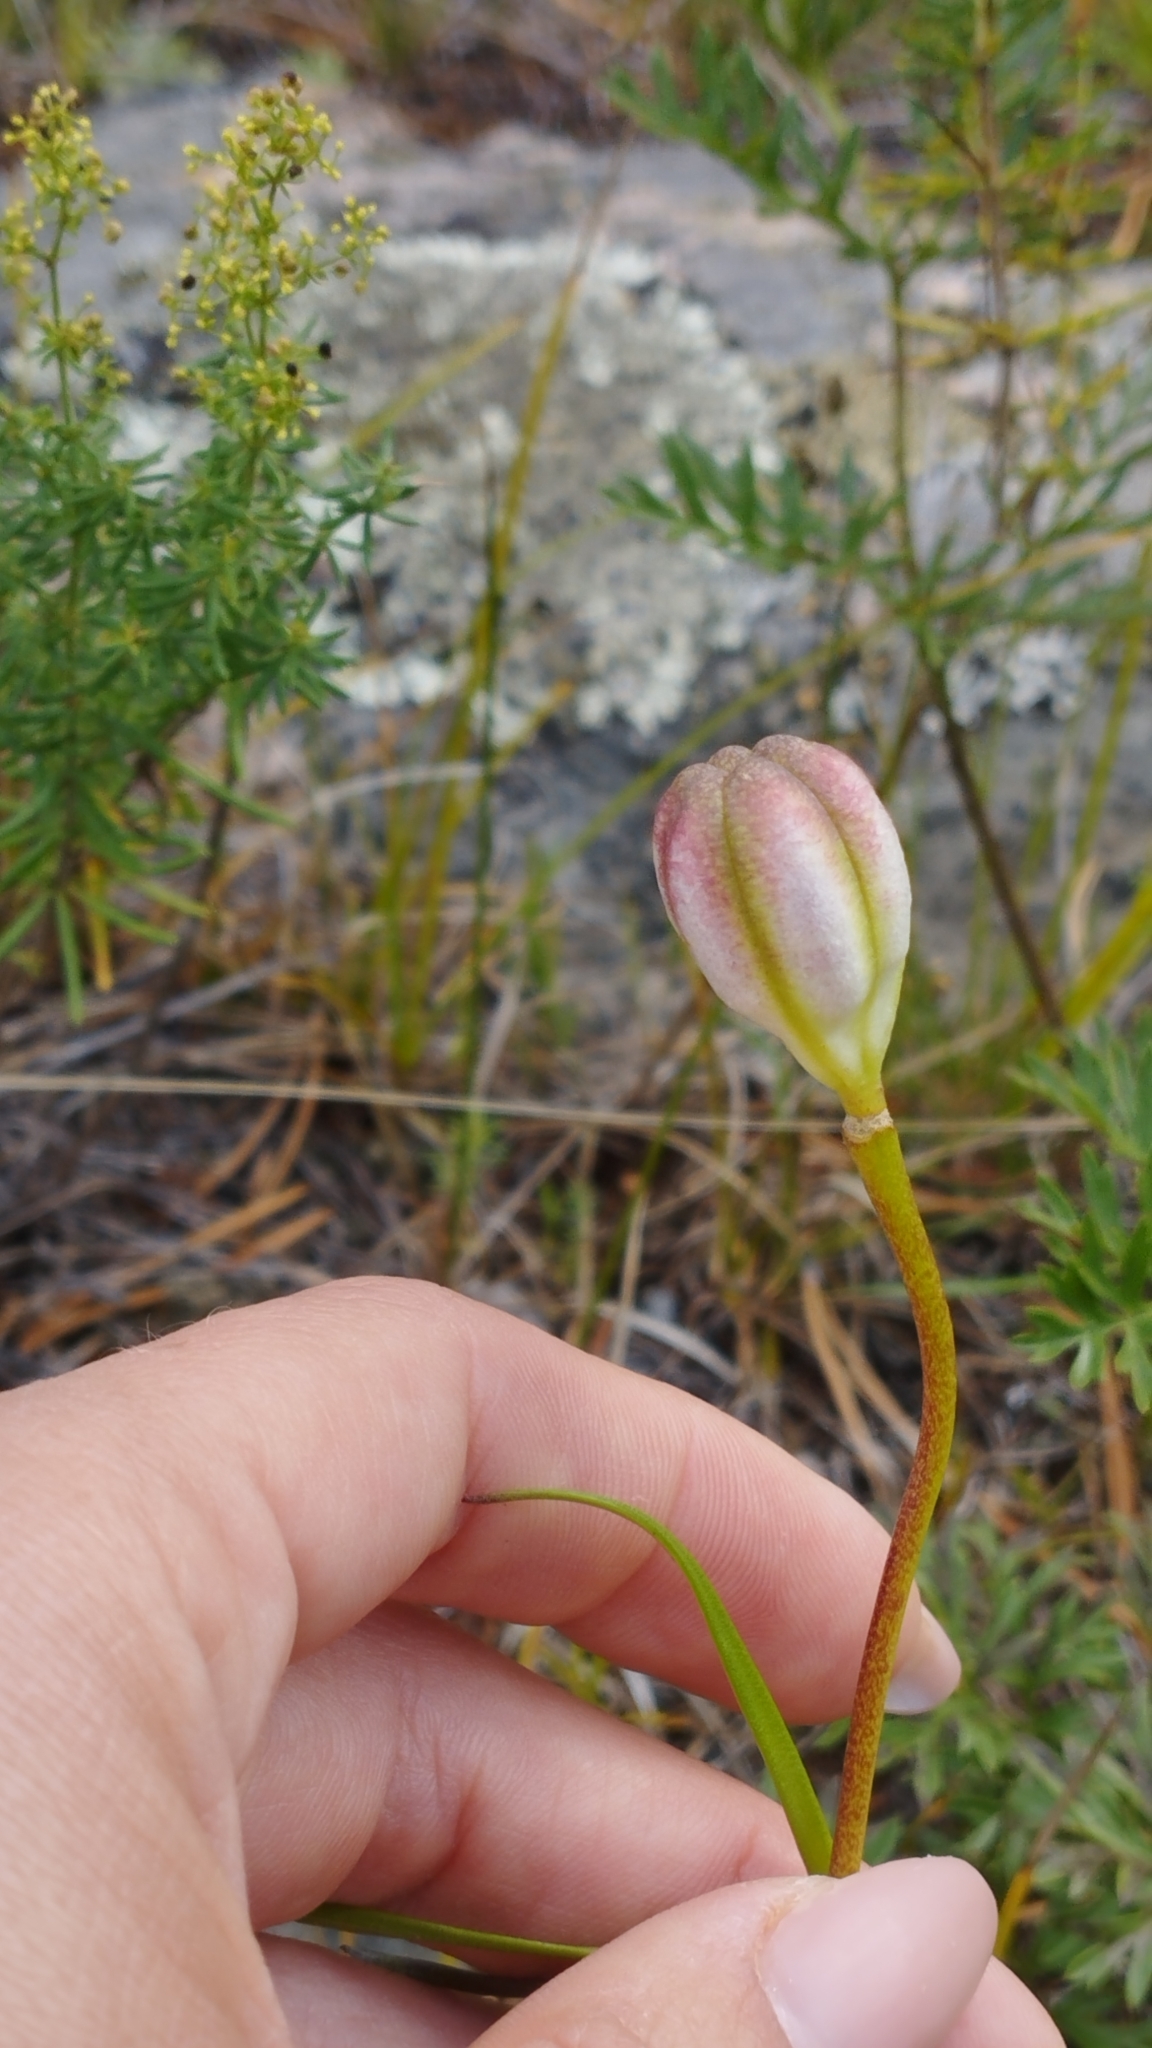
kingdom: Plantae
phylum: Tracheophyta
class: Liliopsida
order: Liliales
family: Liliaceae
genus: Lilium
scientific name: Lilium pumilum
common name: Coral lily
